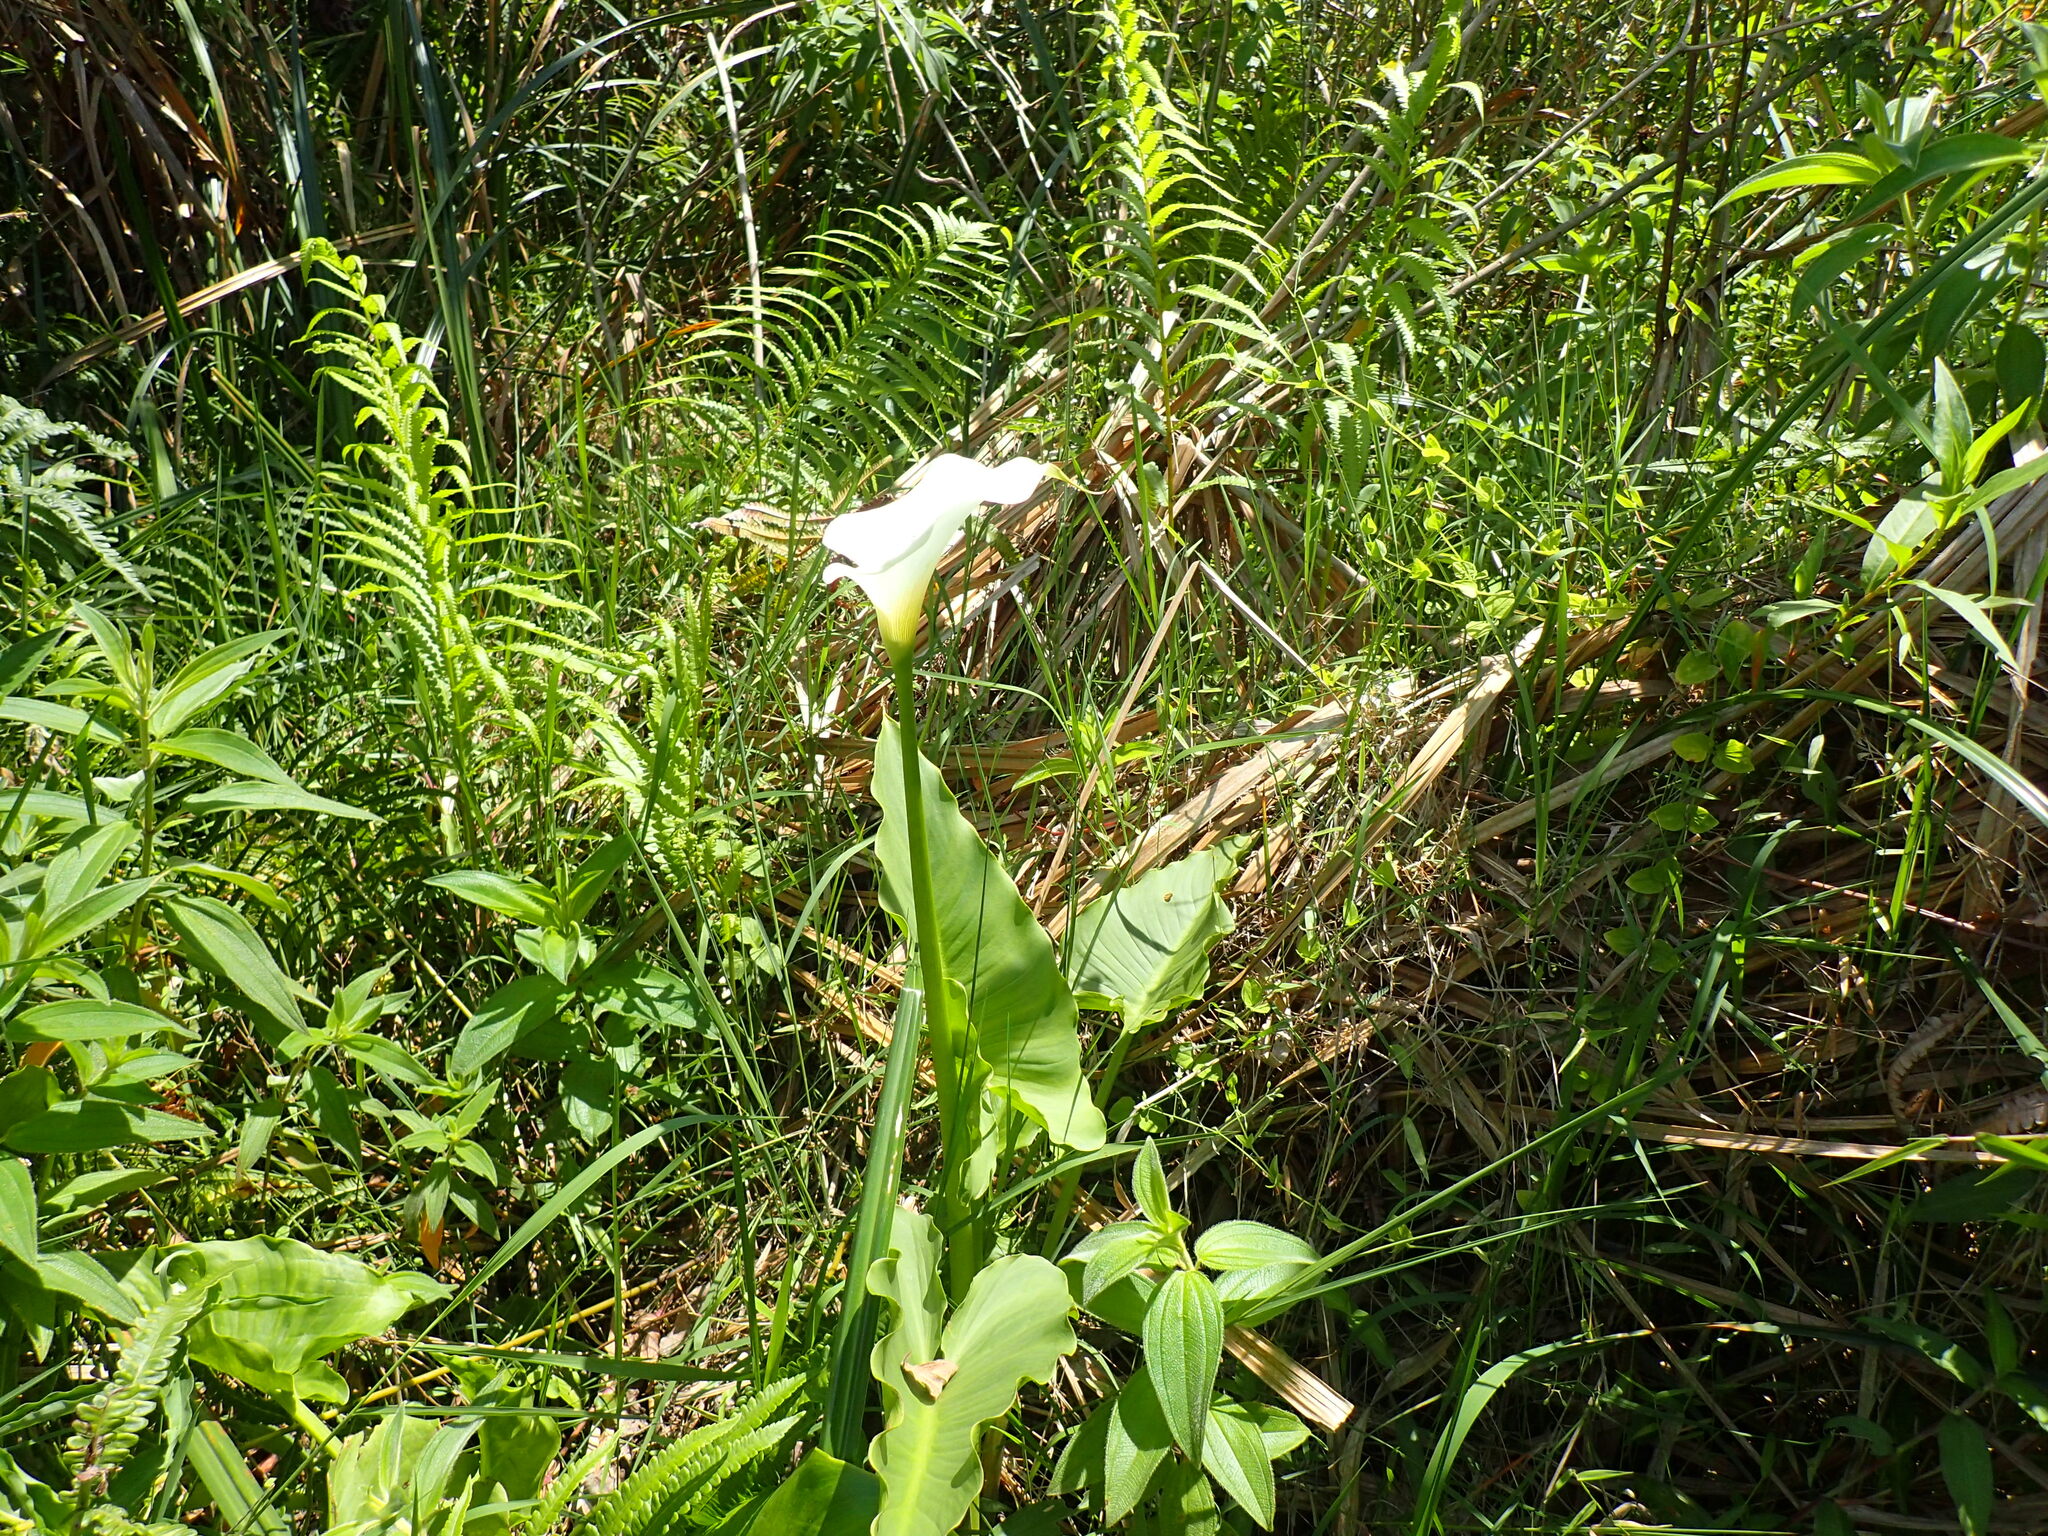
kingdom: Plantae
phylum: Tracheophyta
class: Liliopsida
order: Alismatales
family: Araceae
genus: Zantedeschia
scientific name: Zantedeschia aethiopica
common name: Altar-lily
